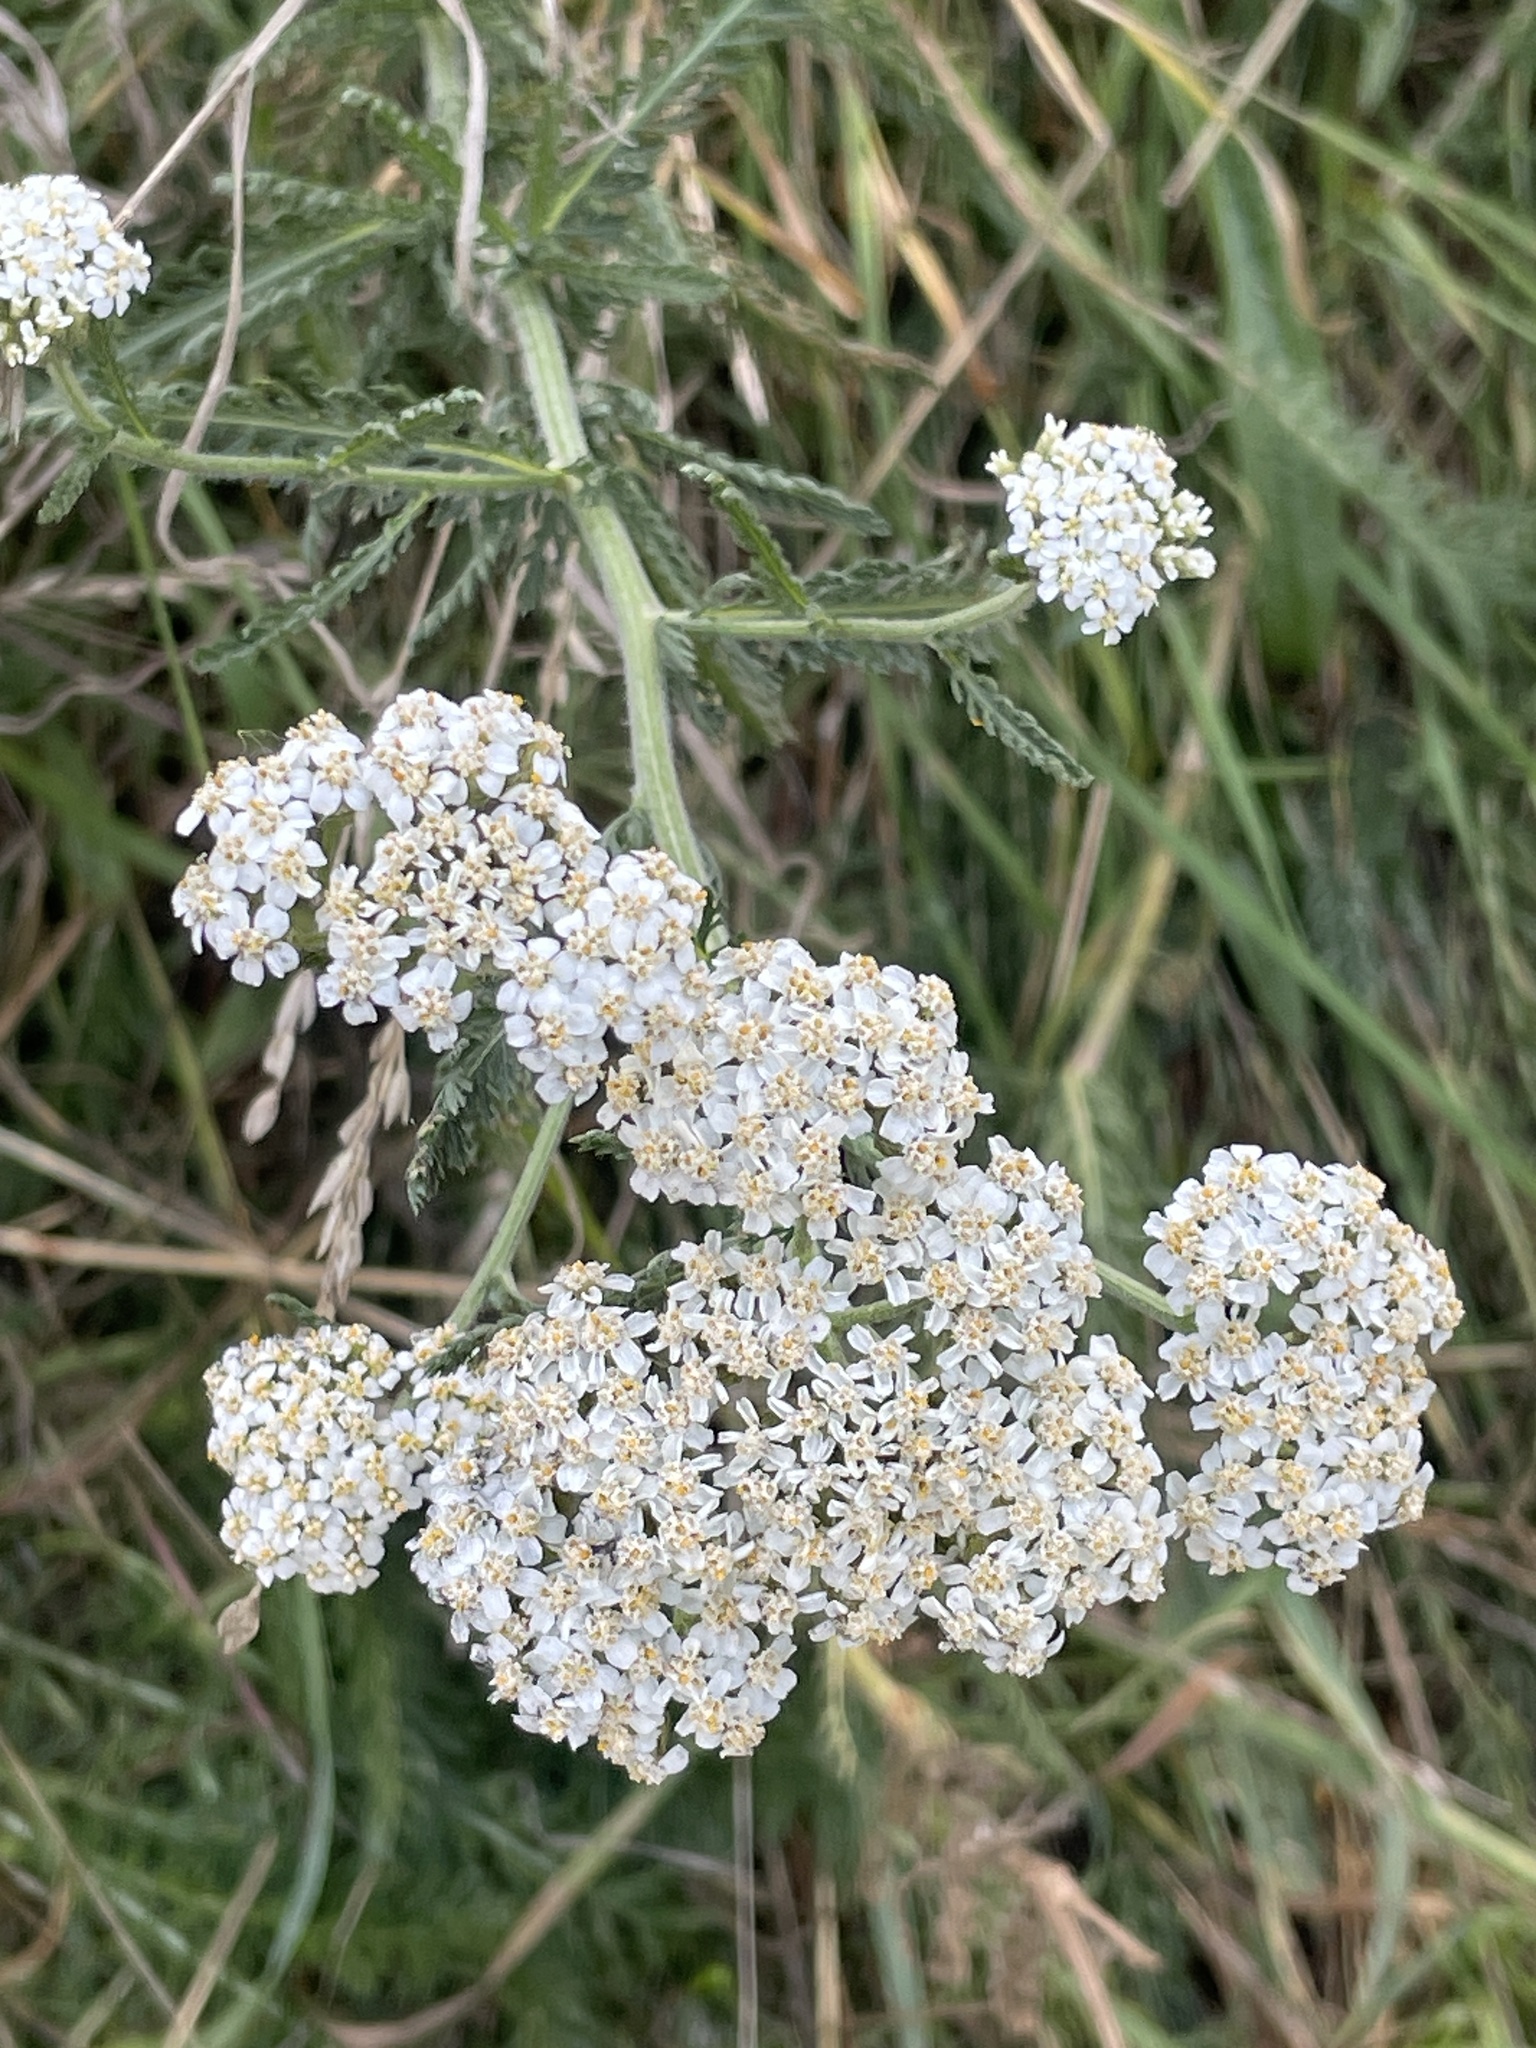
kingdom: Plantae
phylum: Tracheophyta
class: Magnoliopsida
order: Asterales
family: Asteraceae
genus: Achillea
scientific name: Achillea millefolium
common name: Yarrow
